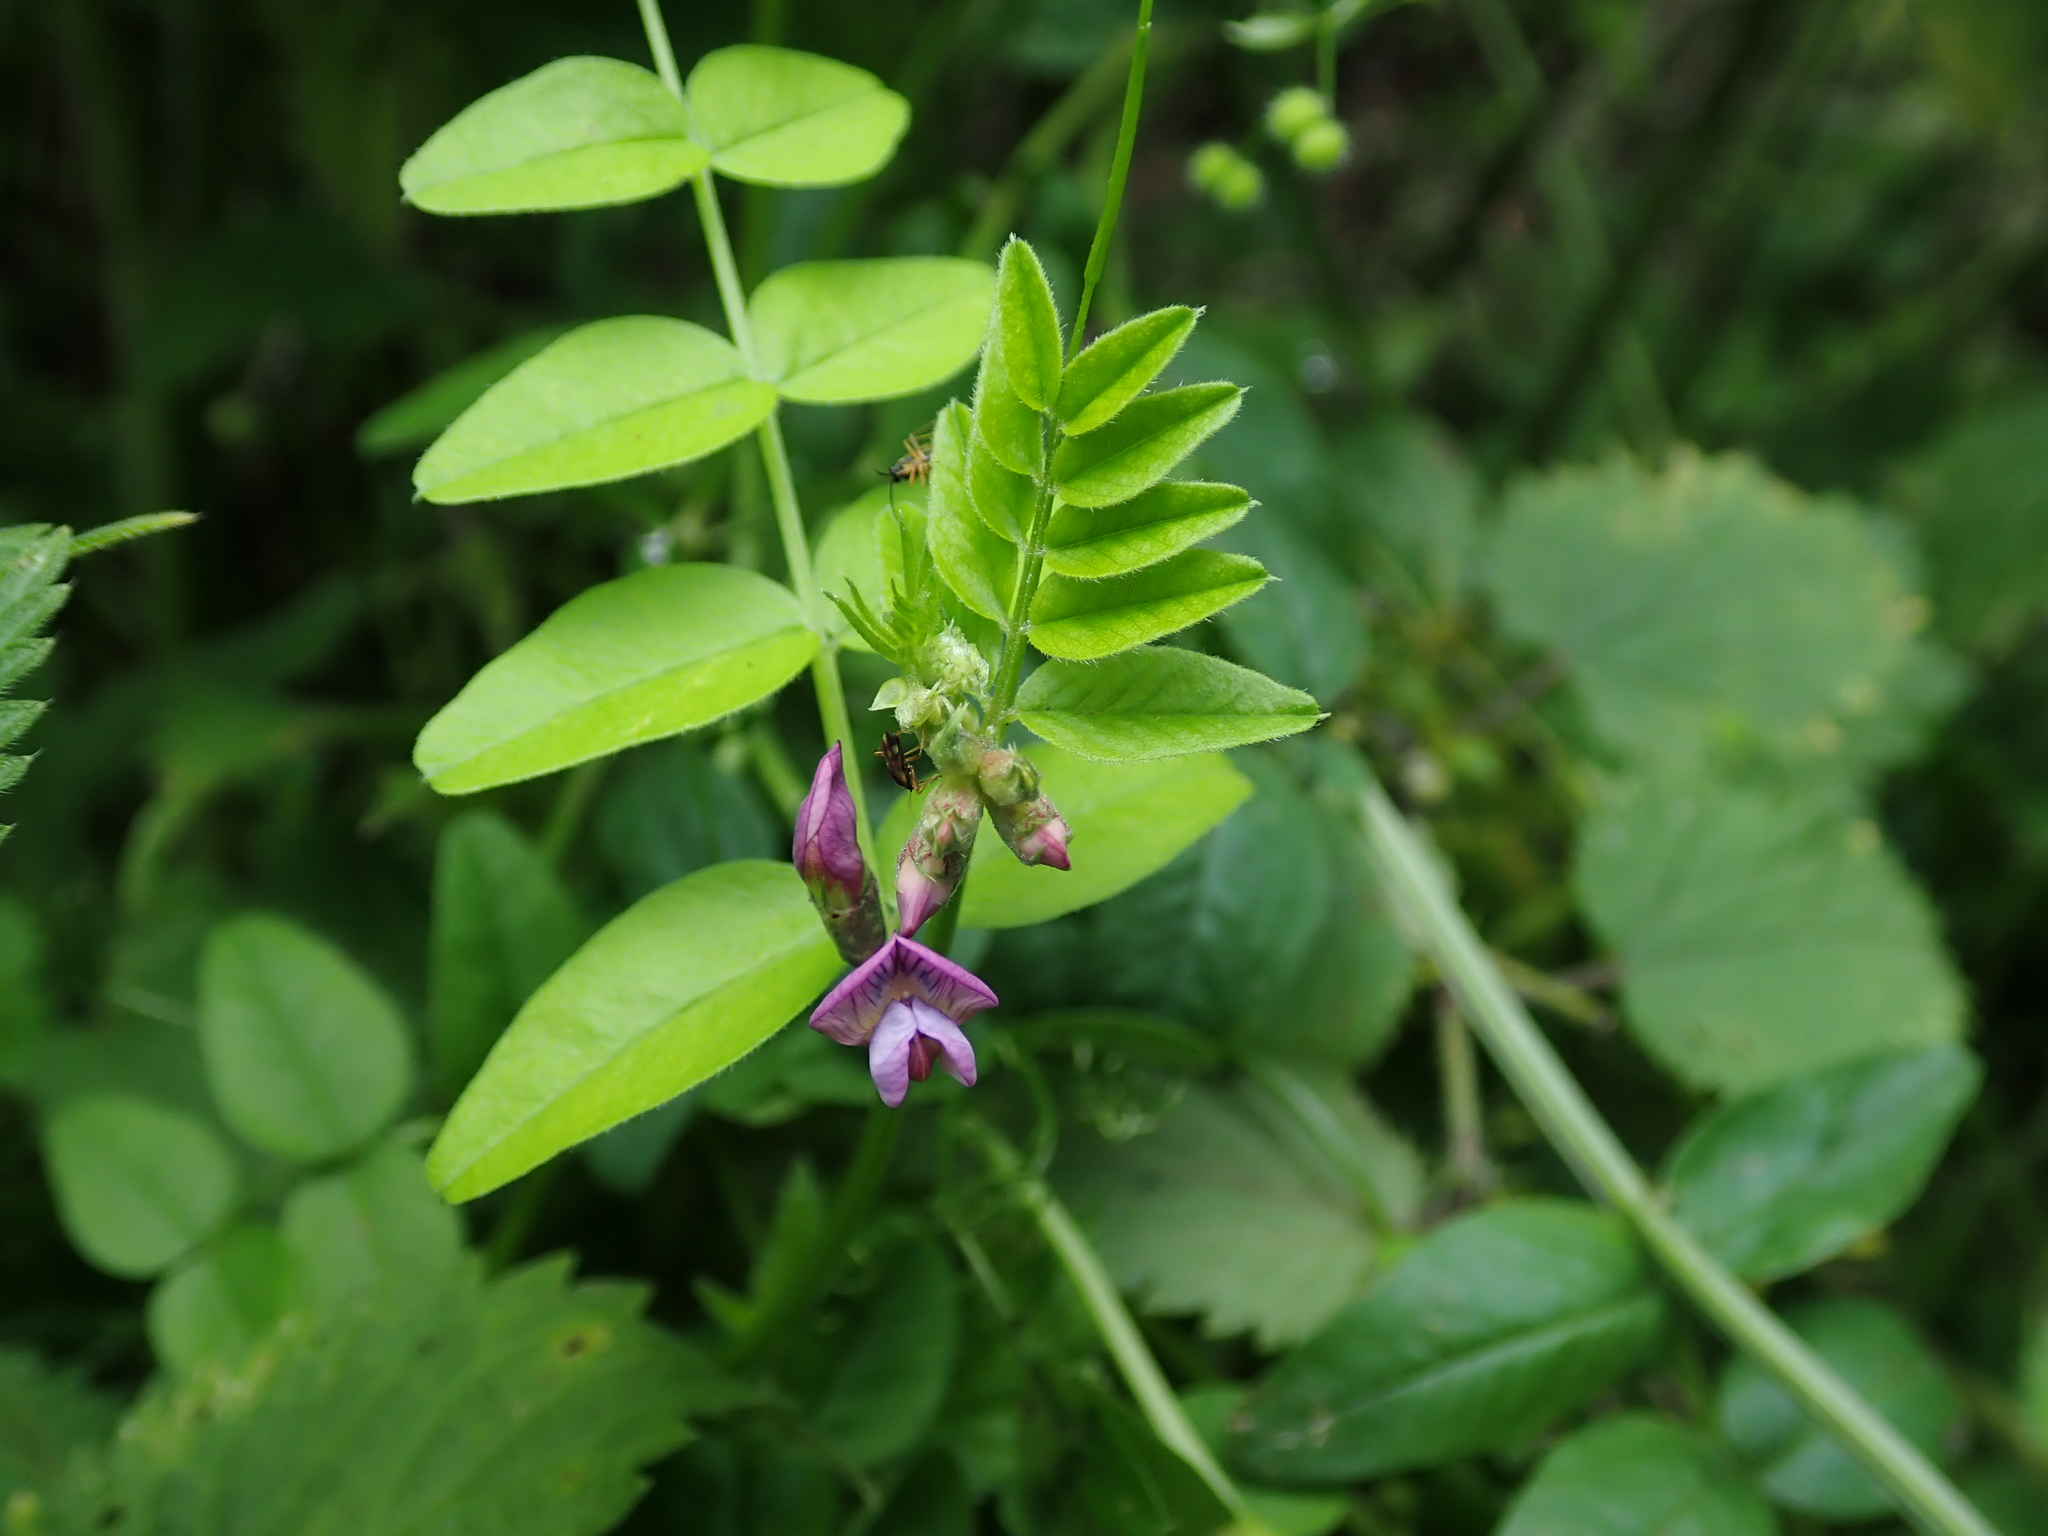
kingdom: Plantae
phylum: Tracheophyta
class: Magnoliopsida
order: Fabales
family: Fabaceae
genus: Vicia
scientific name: Vicia sepium
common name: Bush vetch
